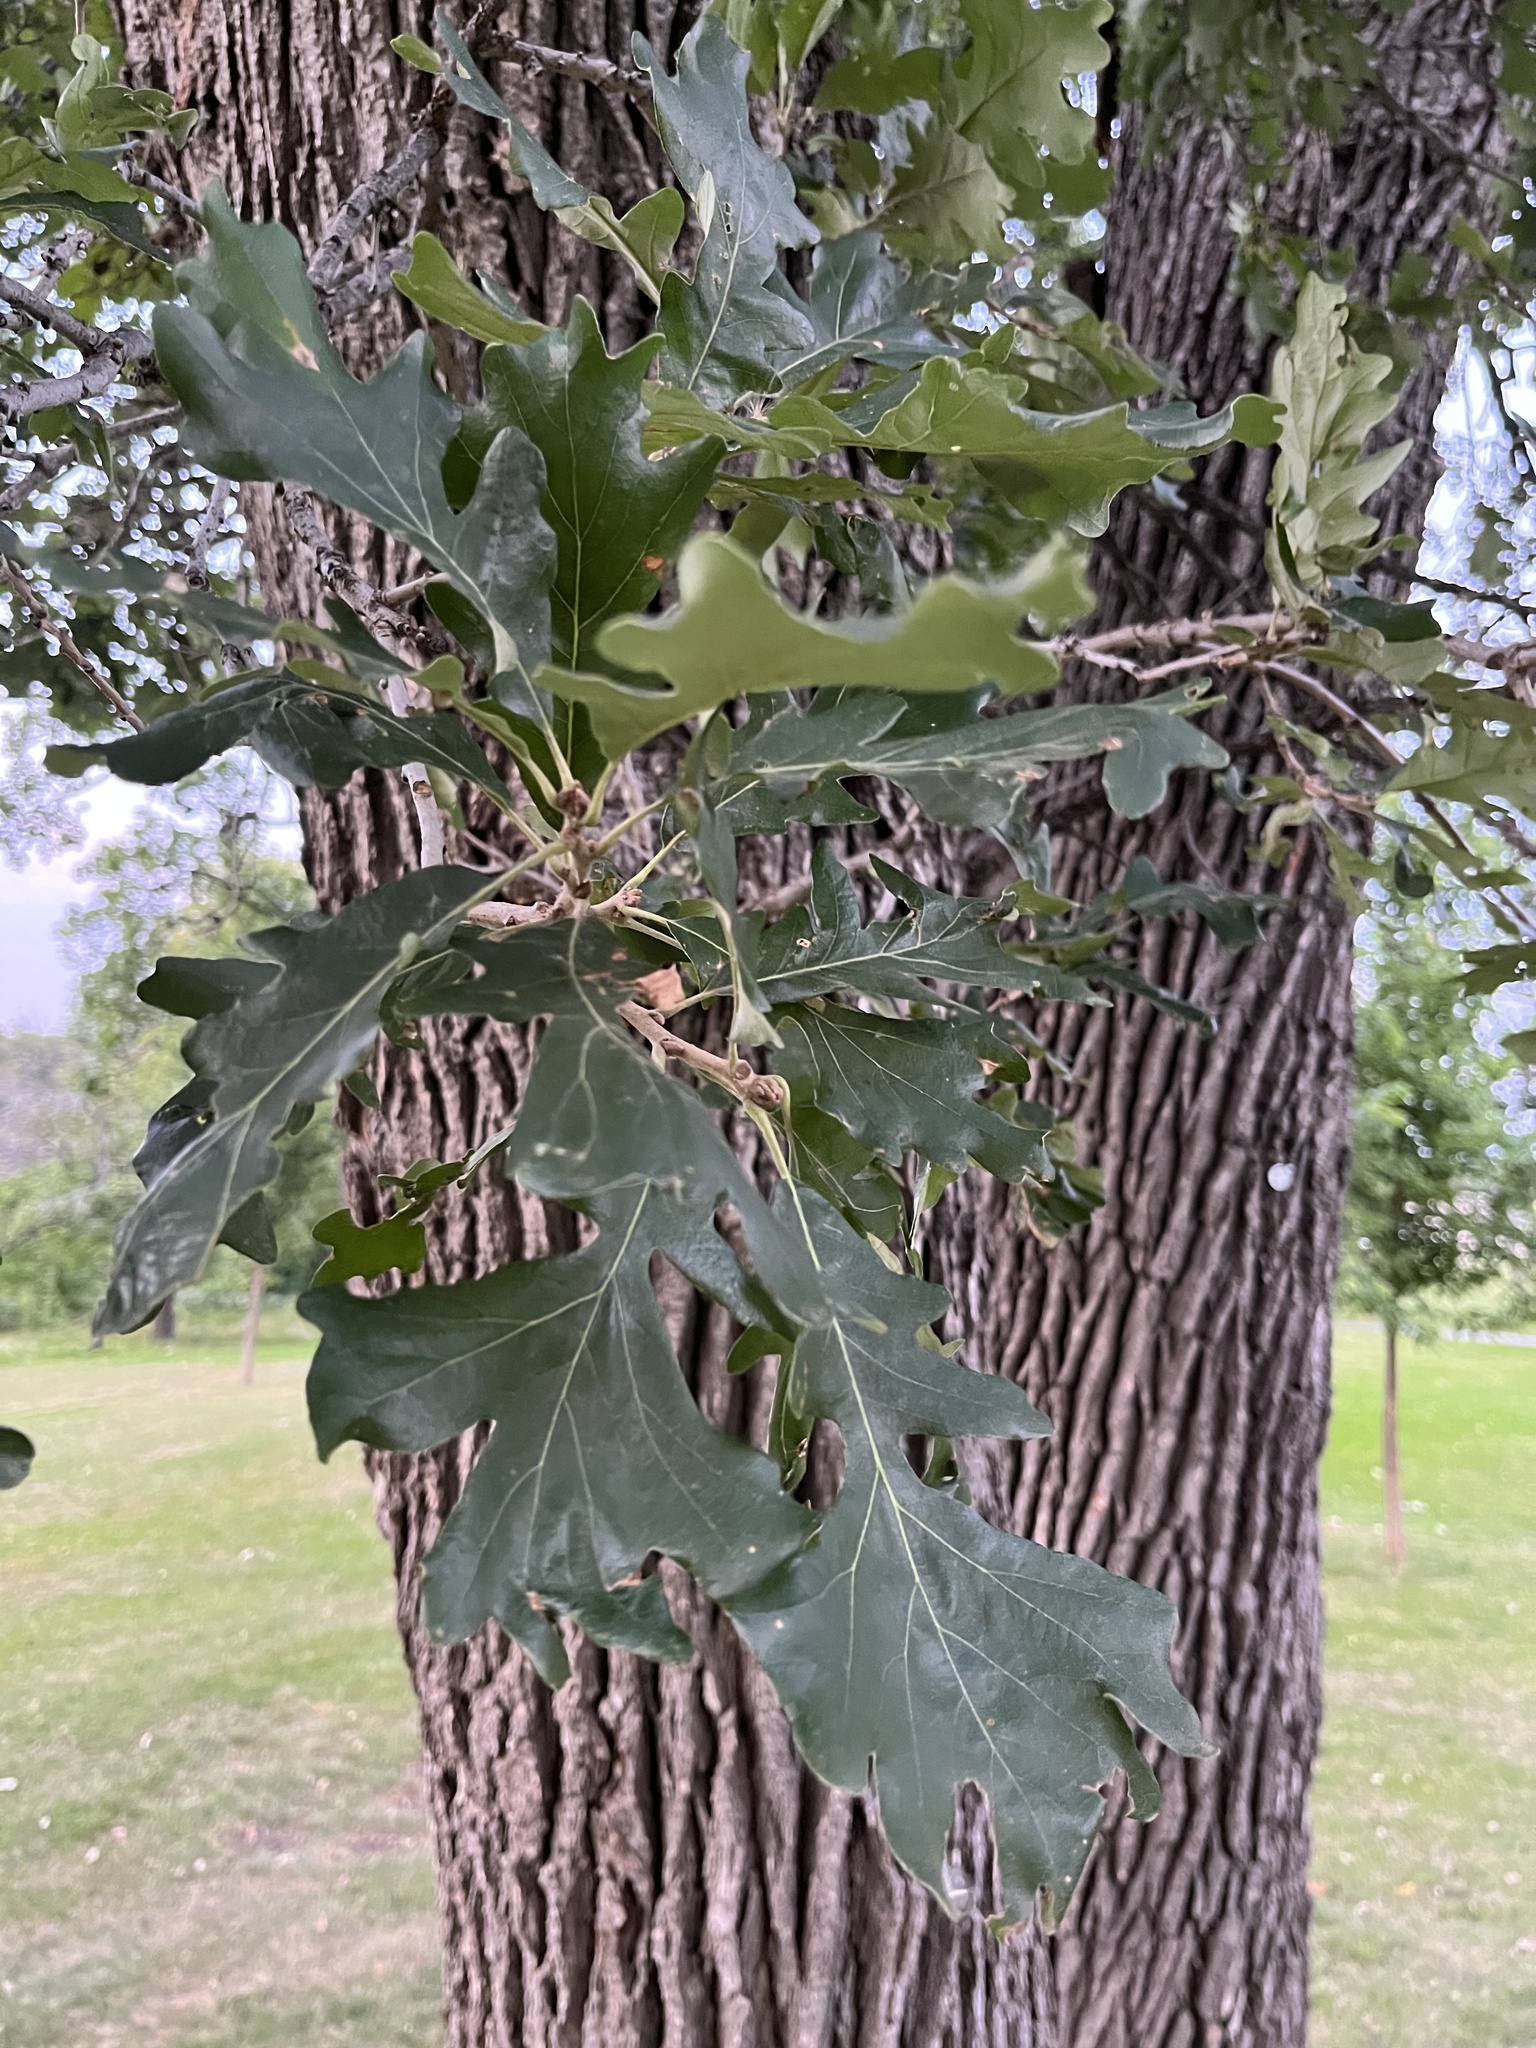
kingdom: Plantae
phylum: Tracheophyta
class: Magnoliopsida
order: Fagales
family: Fagaceae
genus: Quercus
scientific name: Quercus macrocarpa
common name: Bur oak
